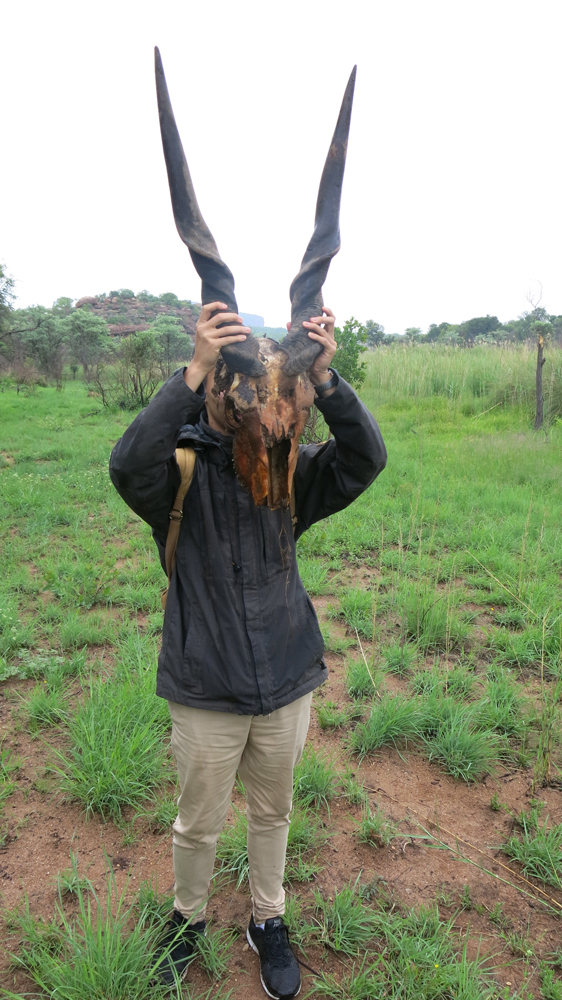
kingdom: Animalia
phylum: Chordata
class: Mammalia
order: Artiodactyla
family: Bovidae
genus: Taurotragus
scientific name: Taurotragus oryx
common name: Common eland
